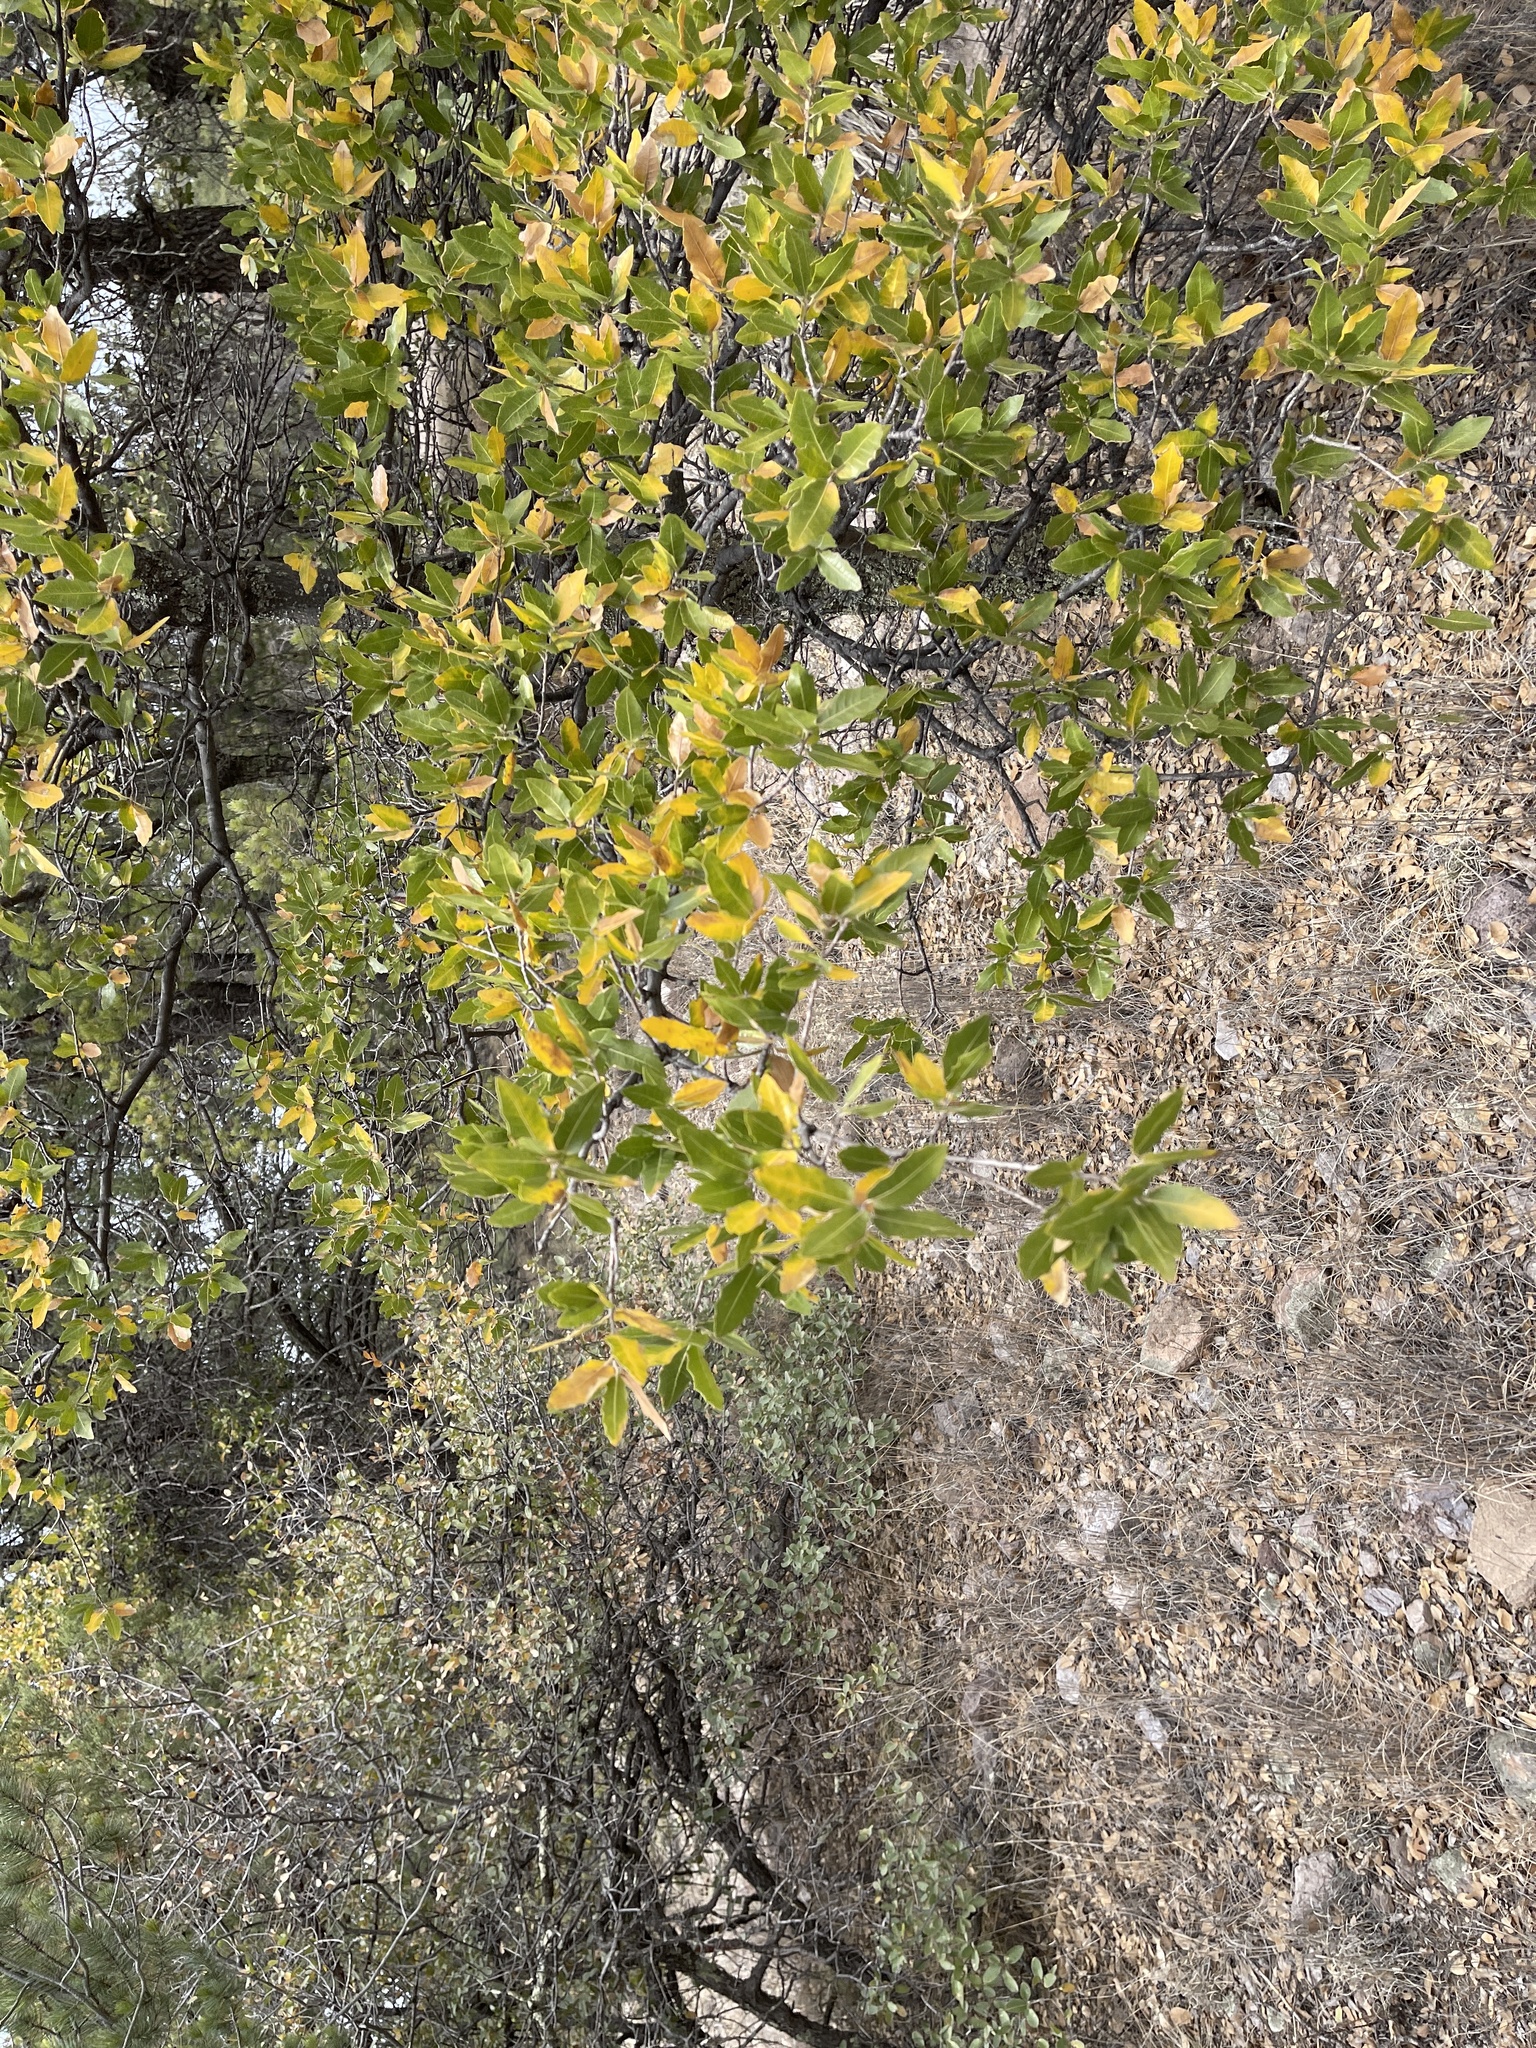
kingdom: Plantae
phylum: Tracheophyta
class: Magnoliopsida
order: Fagales
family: Fagaceae
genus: Quercus
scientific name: Quercus emoryi
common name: Emory oak
